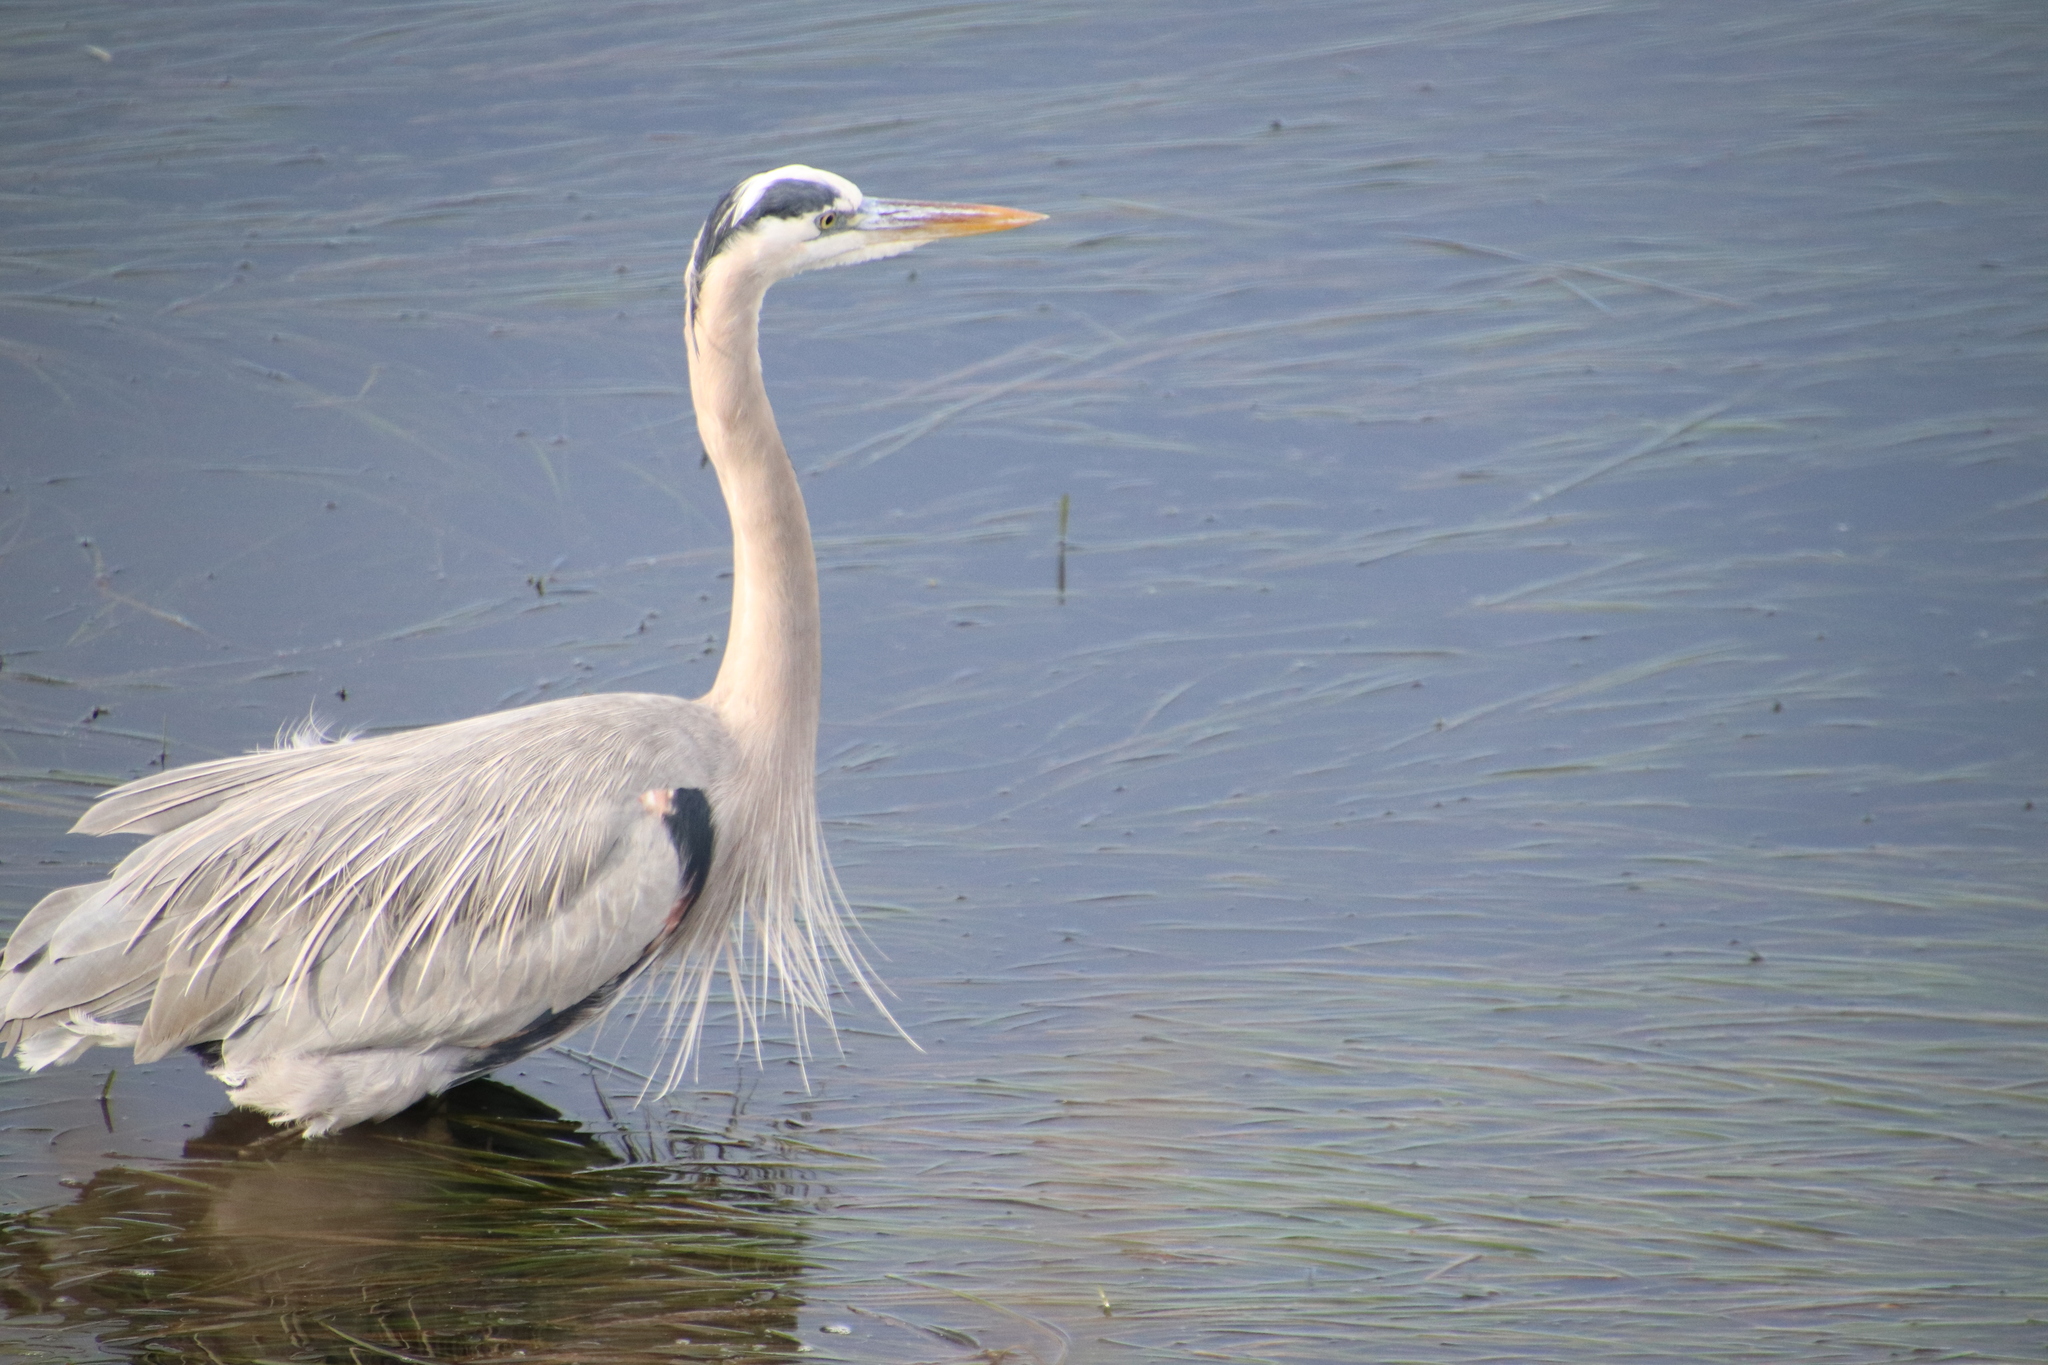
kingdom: Animalia
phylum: Chordata
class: Aves
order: Pelecaniformes
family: Ardeidae
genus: Ardea
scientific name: Ardea herodias
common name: Great blue heron
